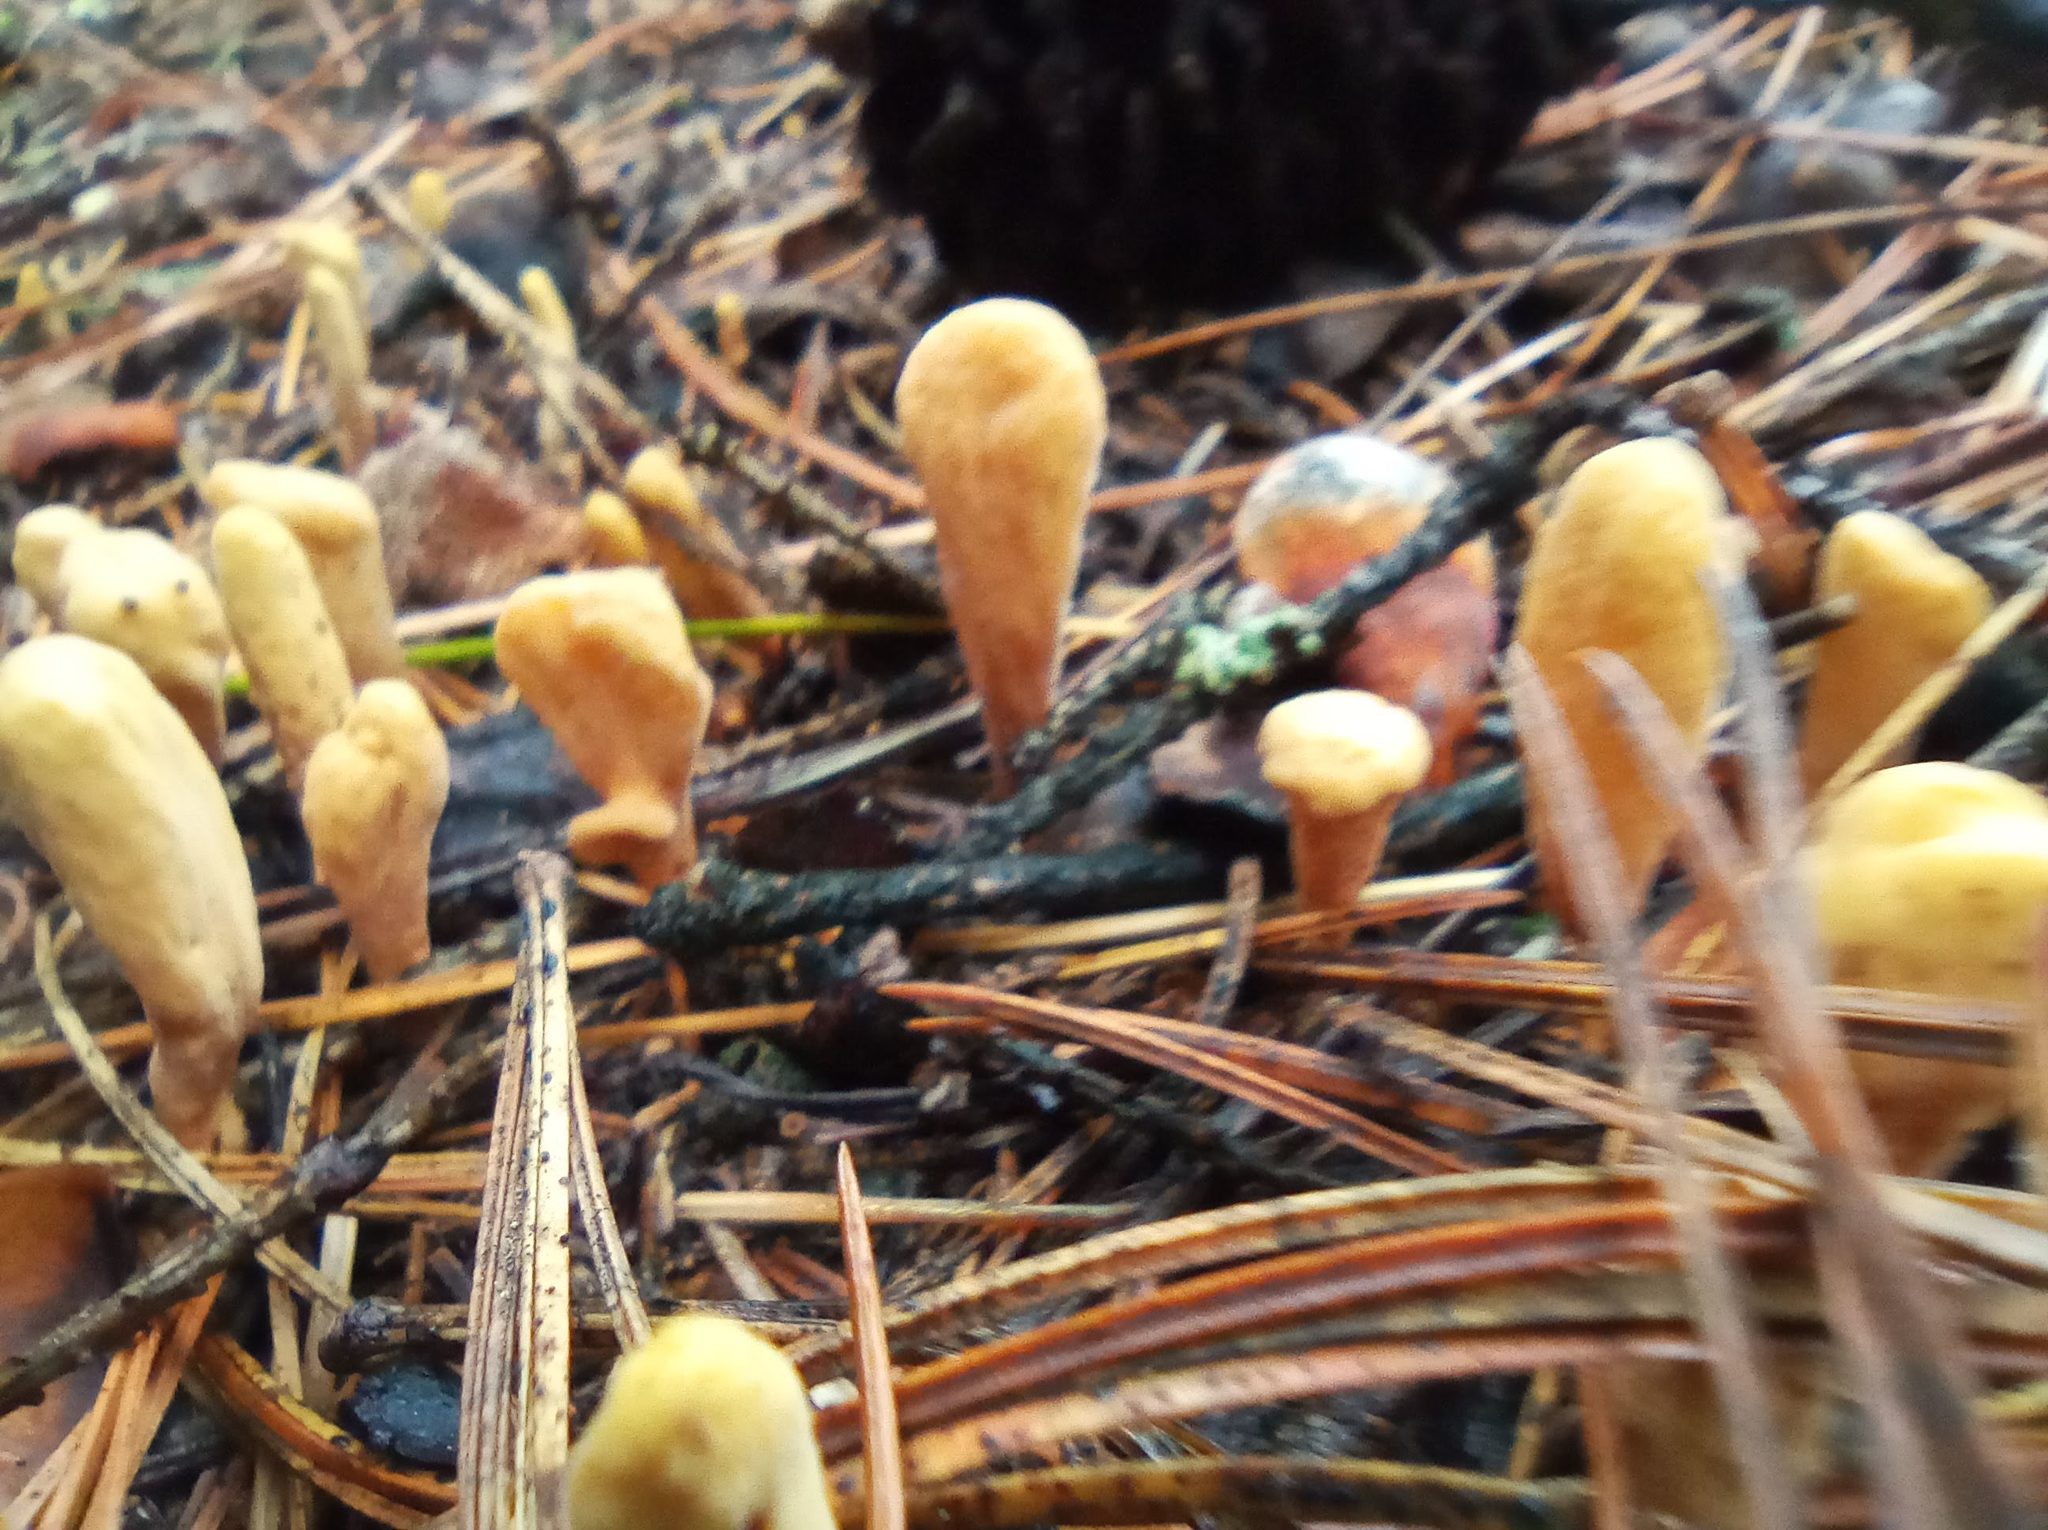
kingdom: Fungi
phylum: Basidiomycota
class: Agaricomycetes
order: Gomphales
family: Clavariadelphaceae
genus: Clavariadelphus
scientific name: Clavariadelphus ligula
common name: Ochre club
